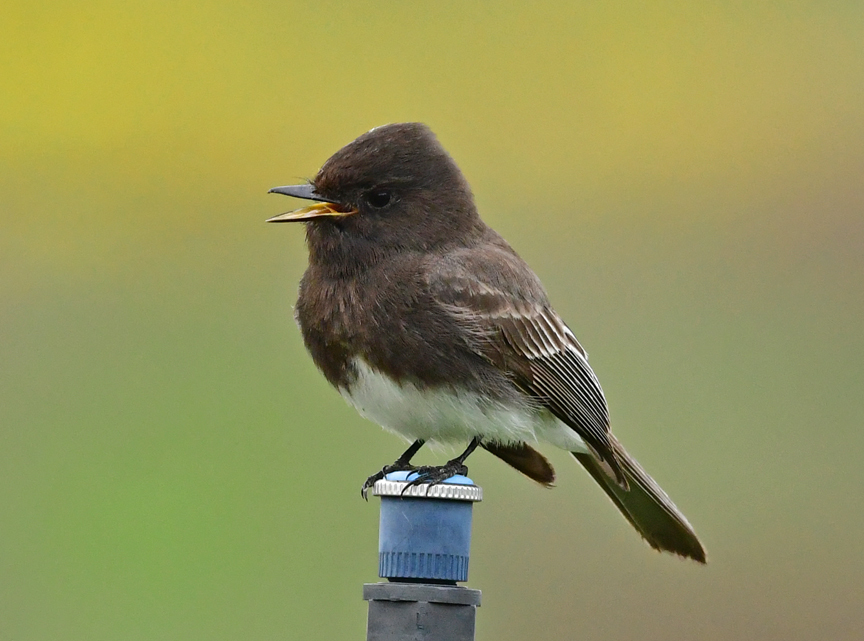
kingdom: Animalia
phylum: Chordata
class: Aves
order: Passeriformes
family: Tyrannidae
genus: Sayornis
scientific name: Sayornis nigricans
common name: Black phoebe
